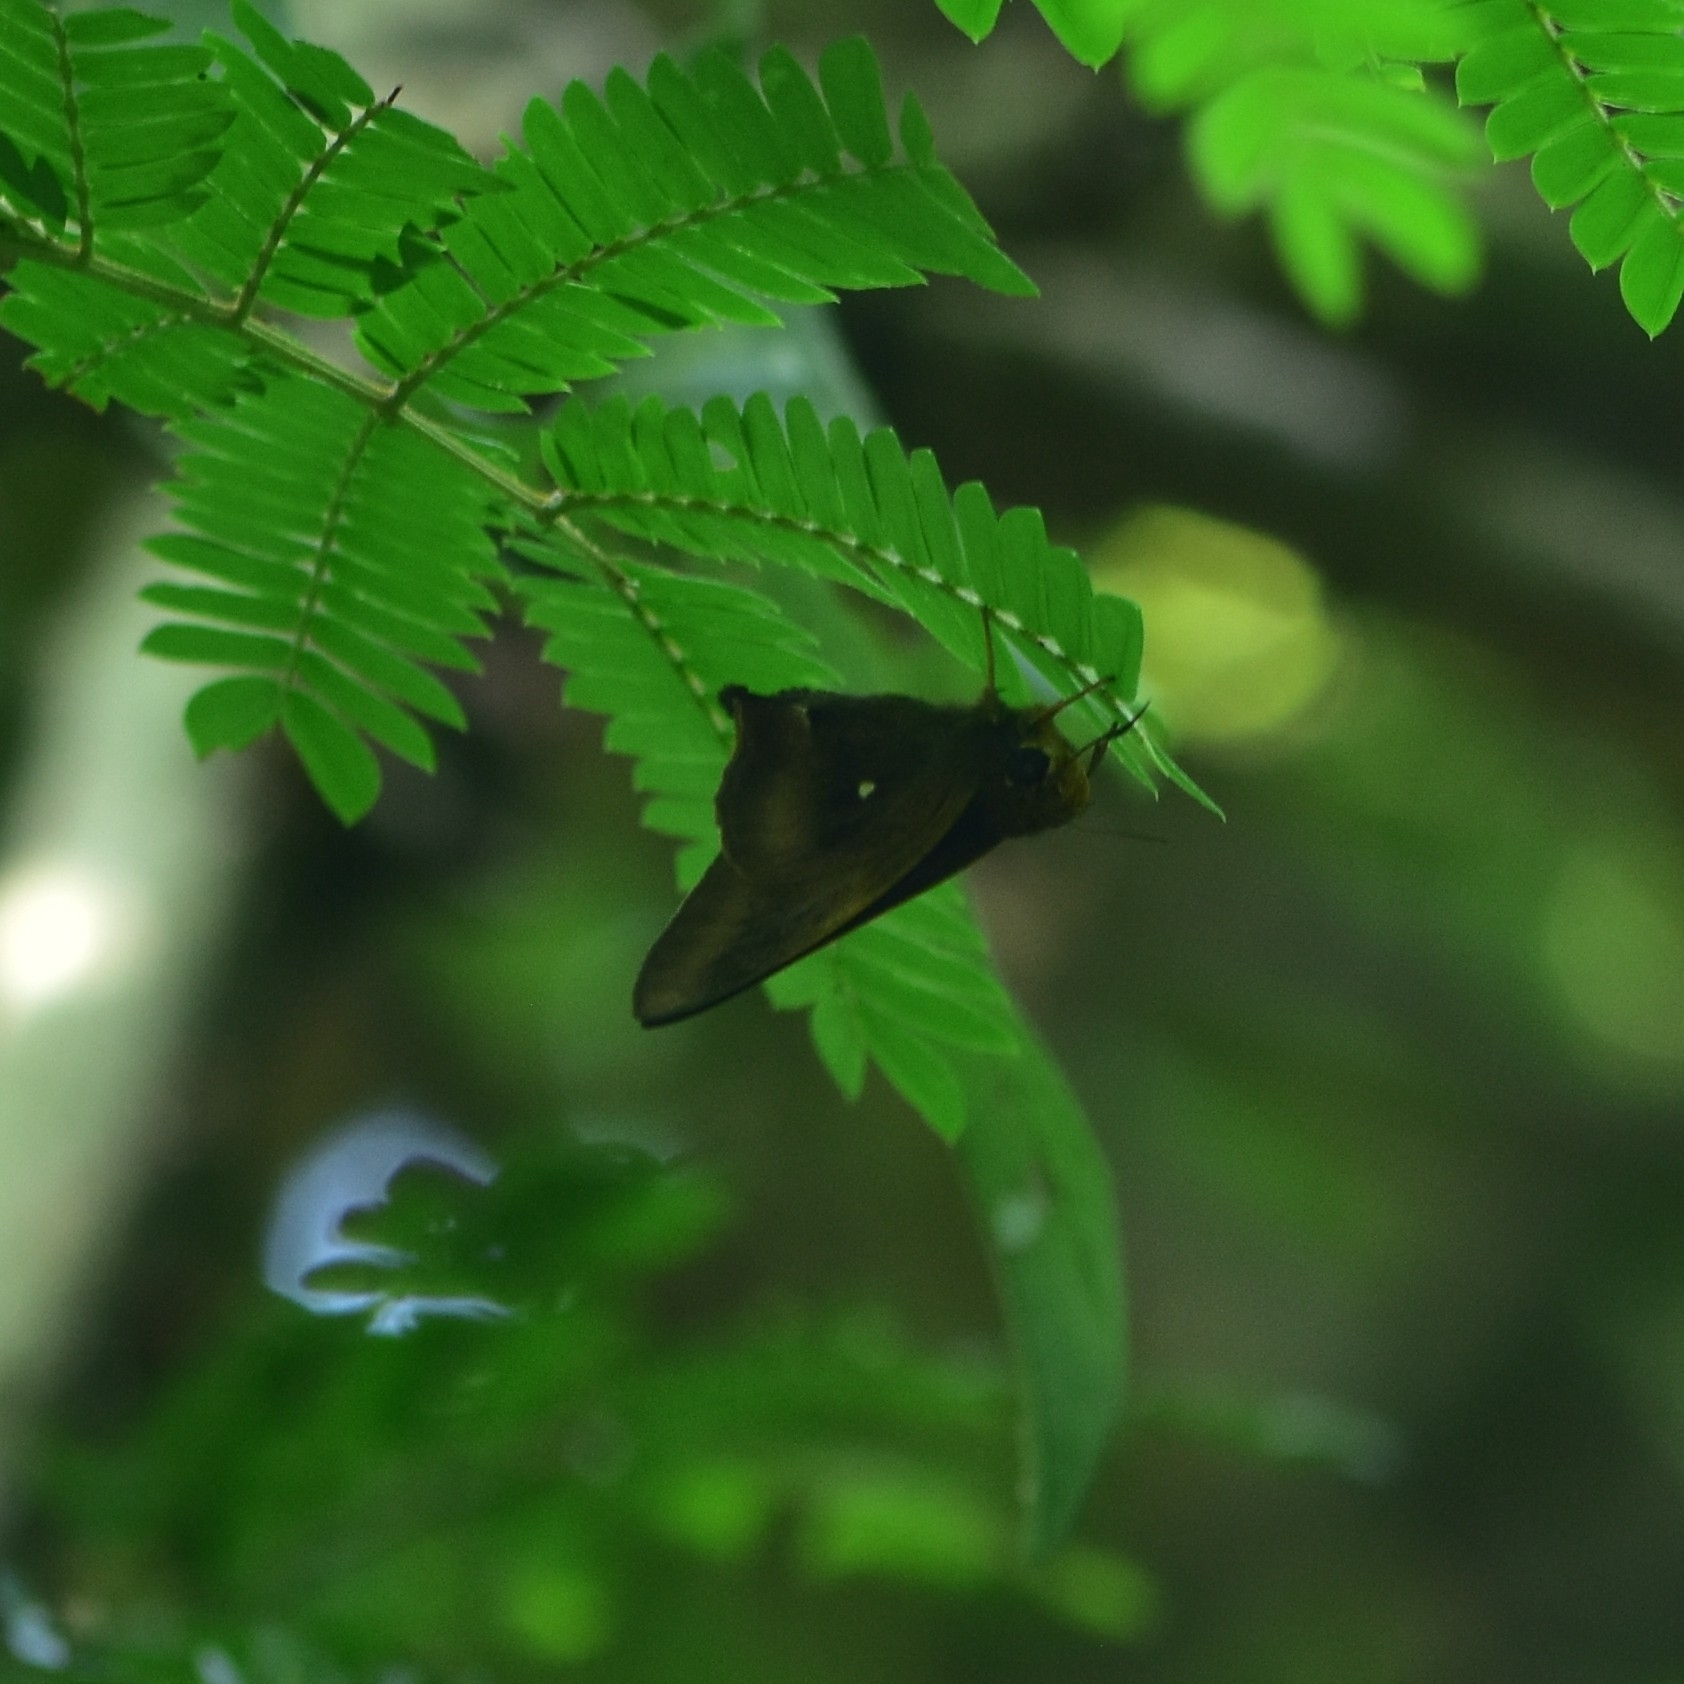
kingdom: Animalia
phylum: Arthropoda
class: Insecta
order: Lepidoptera
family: Hesperiidae
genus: Hasora
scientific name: Hasora badra
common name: Common awl
